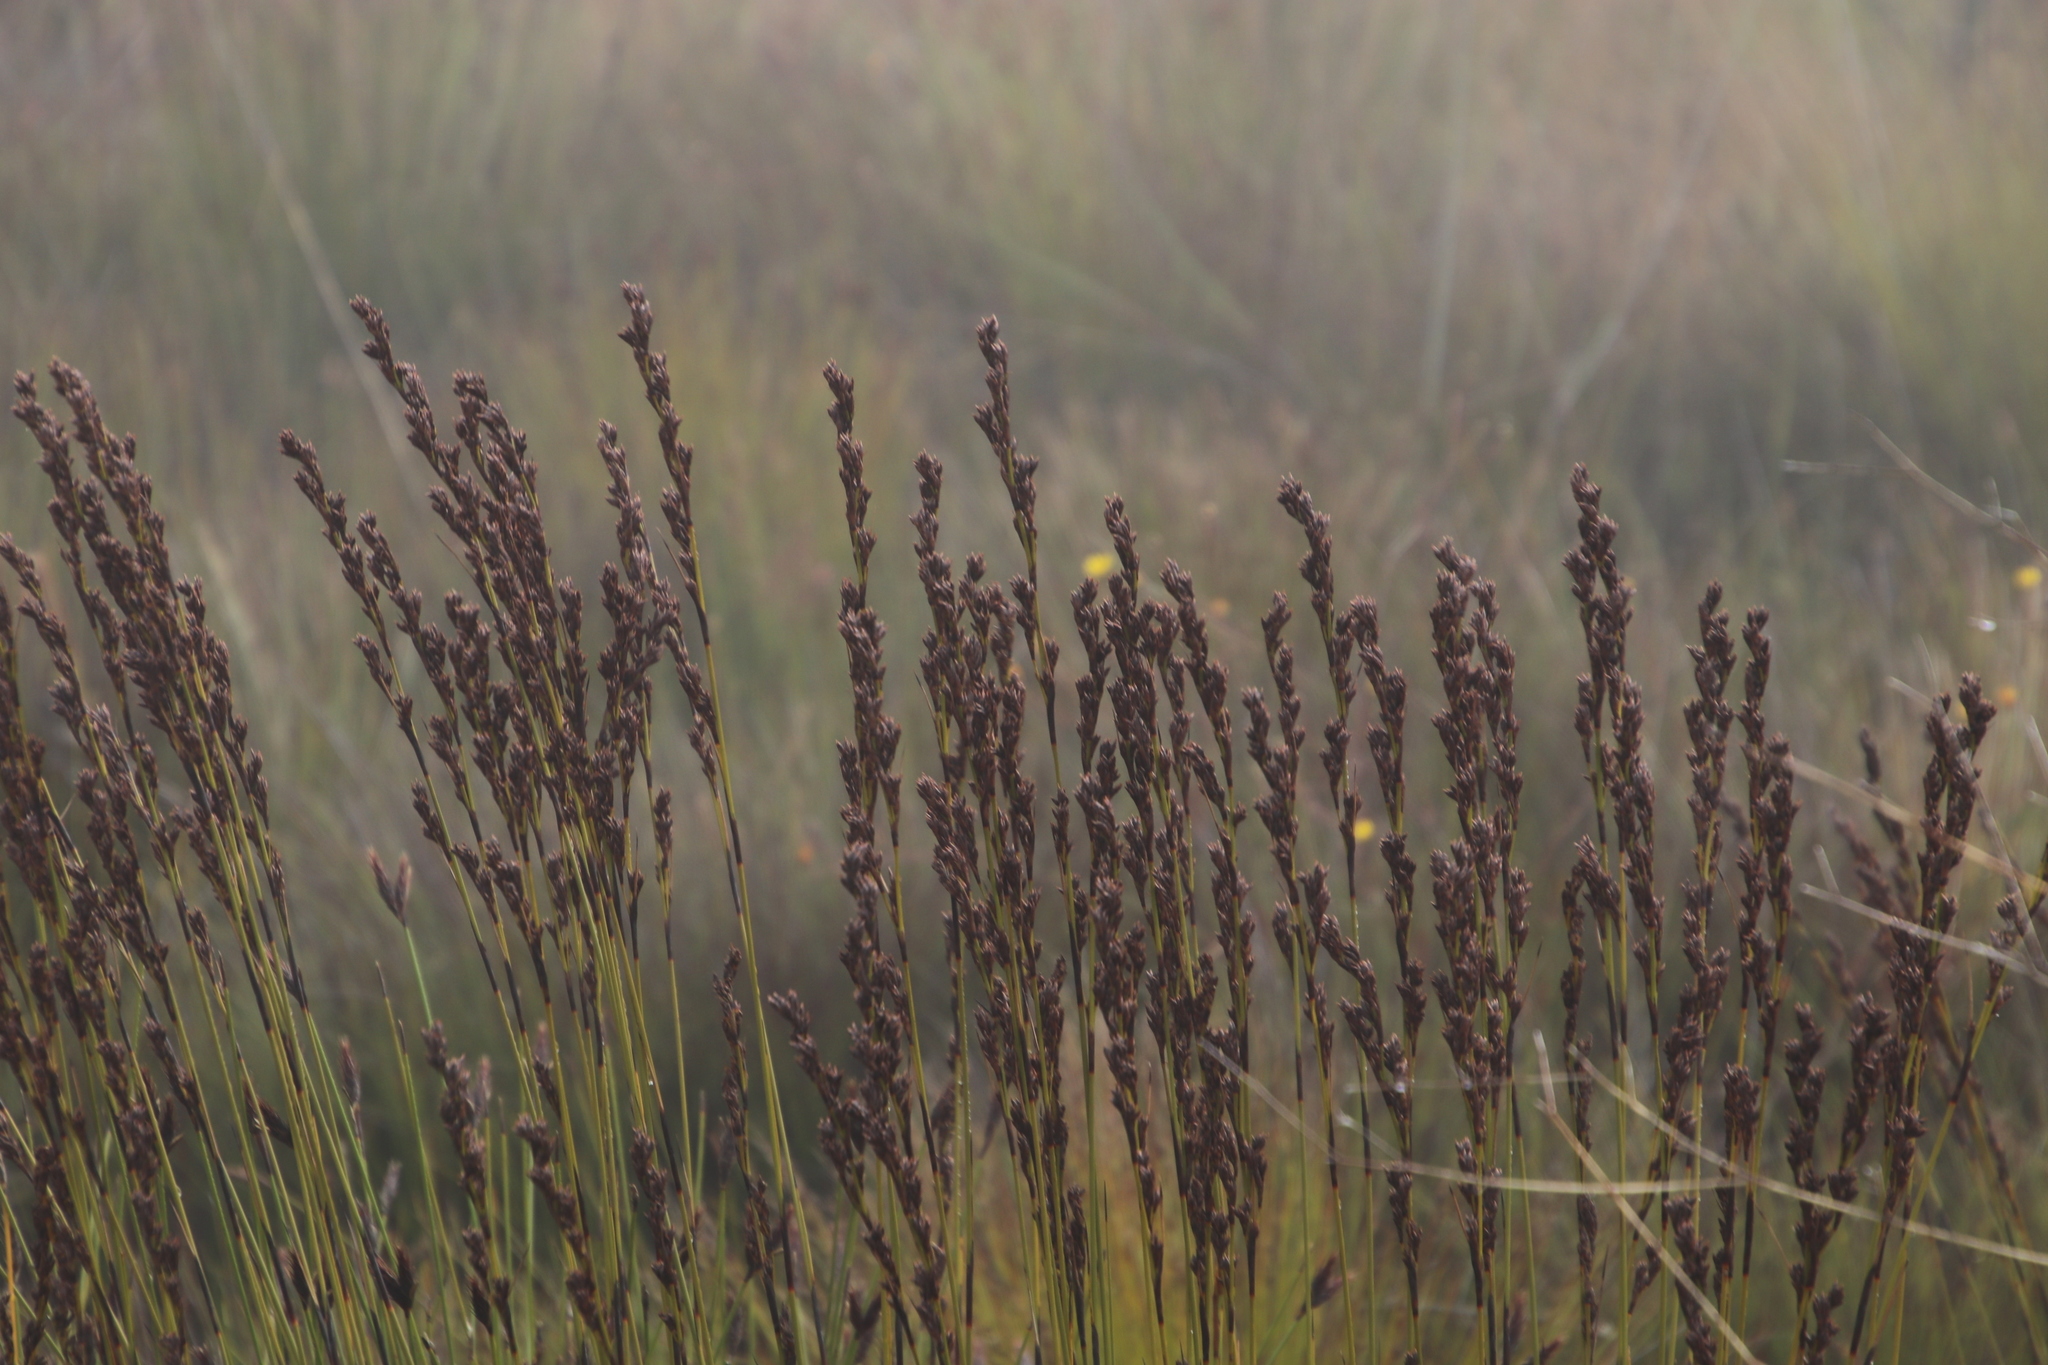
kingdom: Plantae
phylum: Tracheophyta
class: Liliopsida
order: Poales
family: Cyperaceae
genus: Tetraria
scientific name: Tetraria flexuosa
